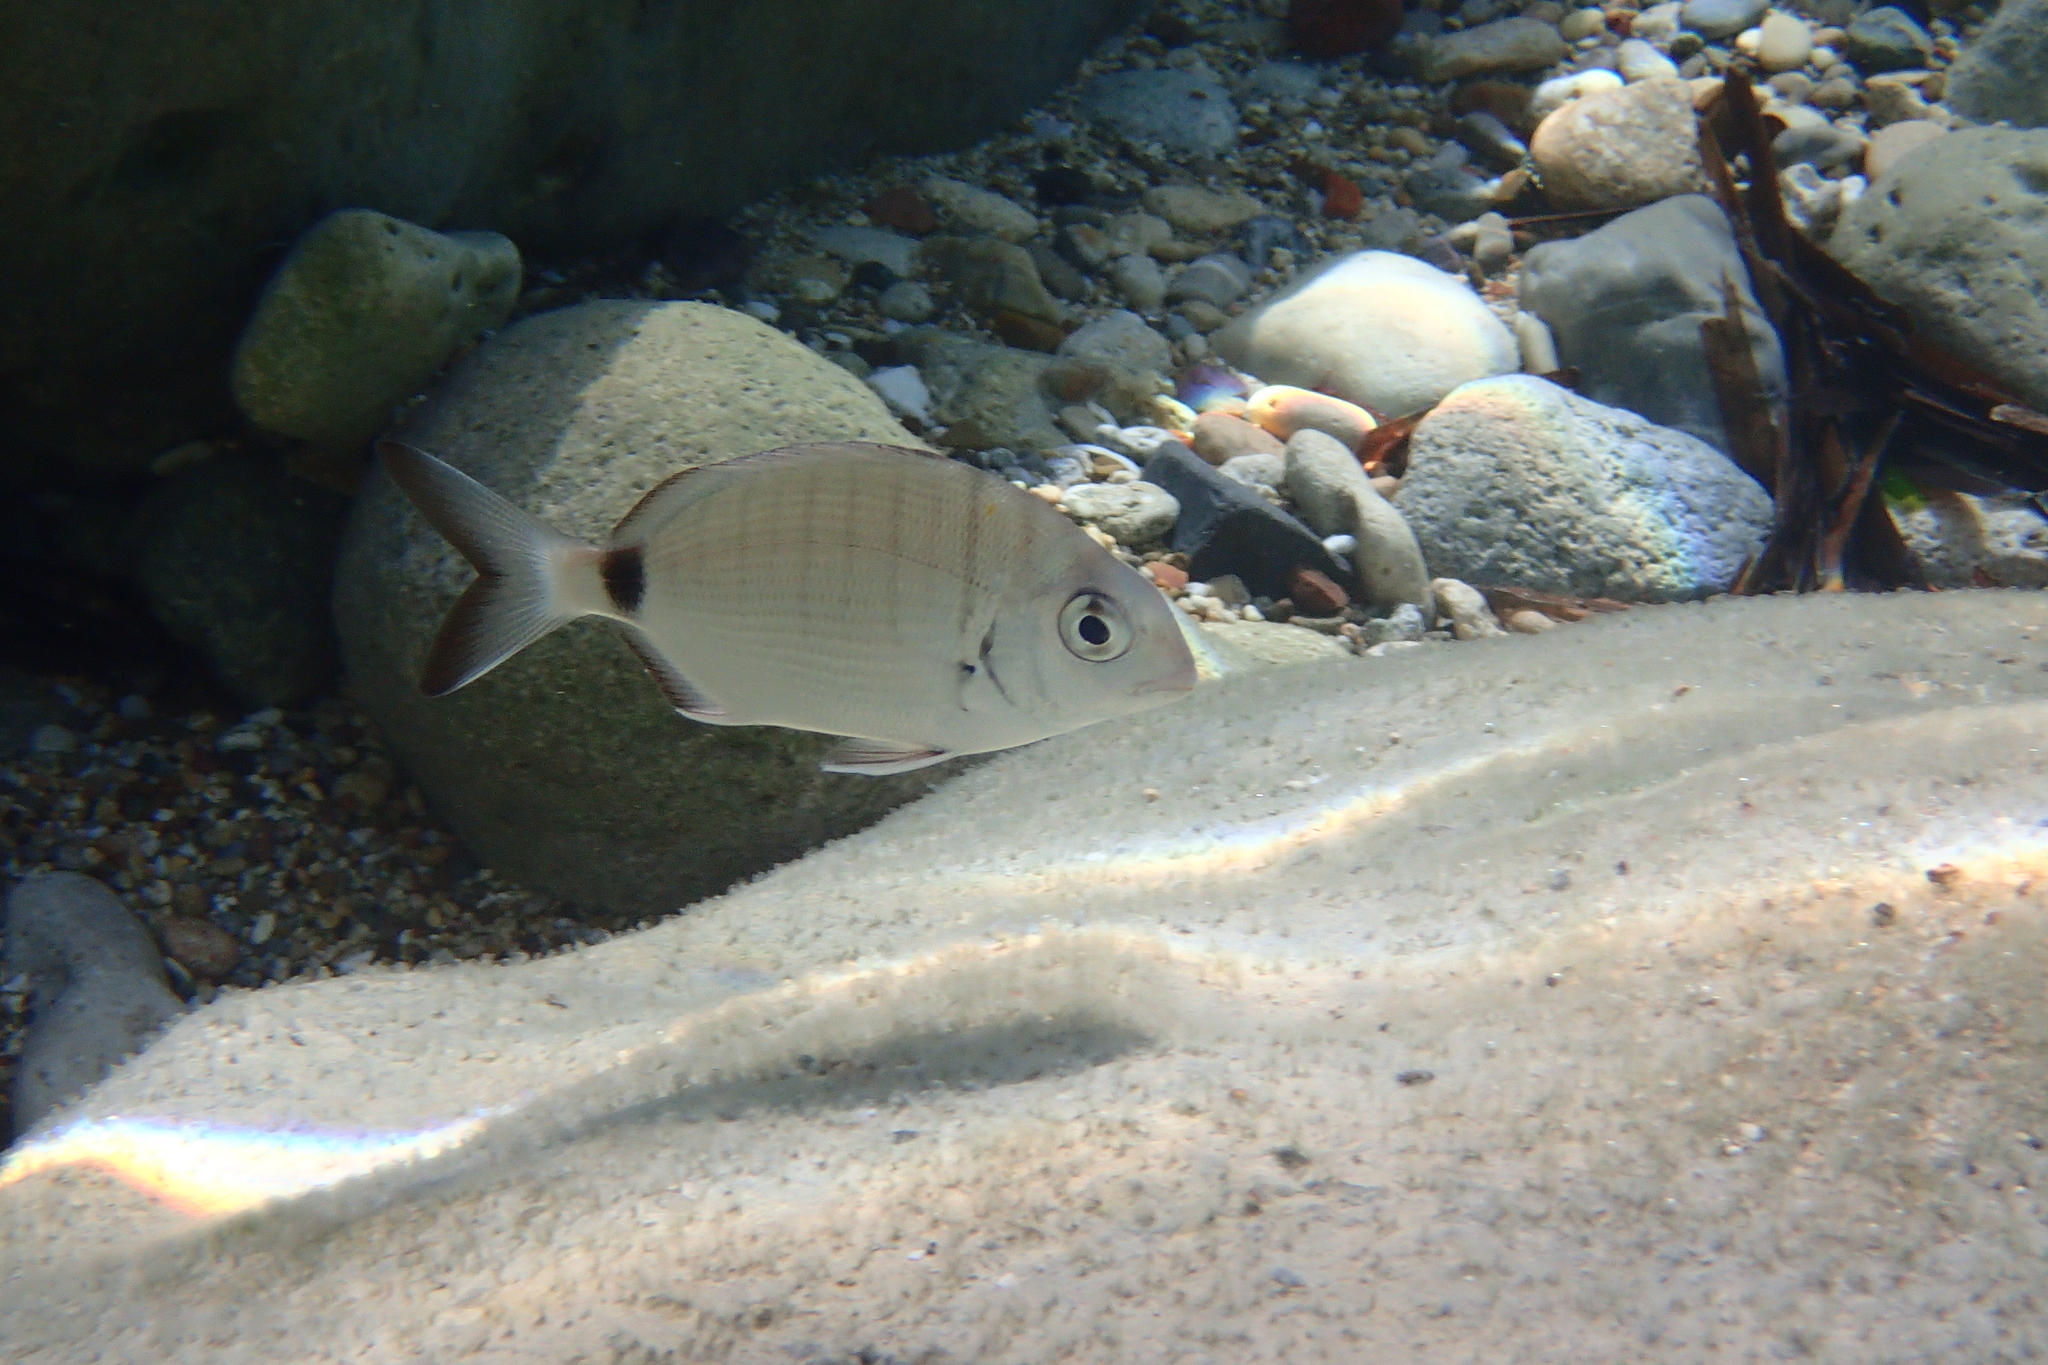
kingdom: Animalia
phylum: Chordata
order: Perciformes
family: Sparidae
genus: Diplodus
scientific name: Diplodus sargus
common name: White seabream
